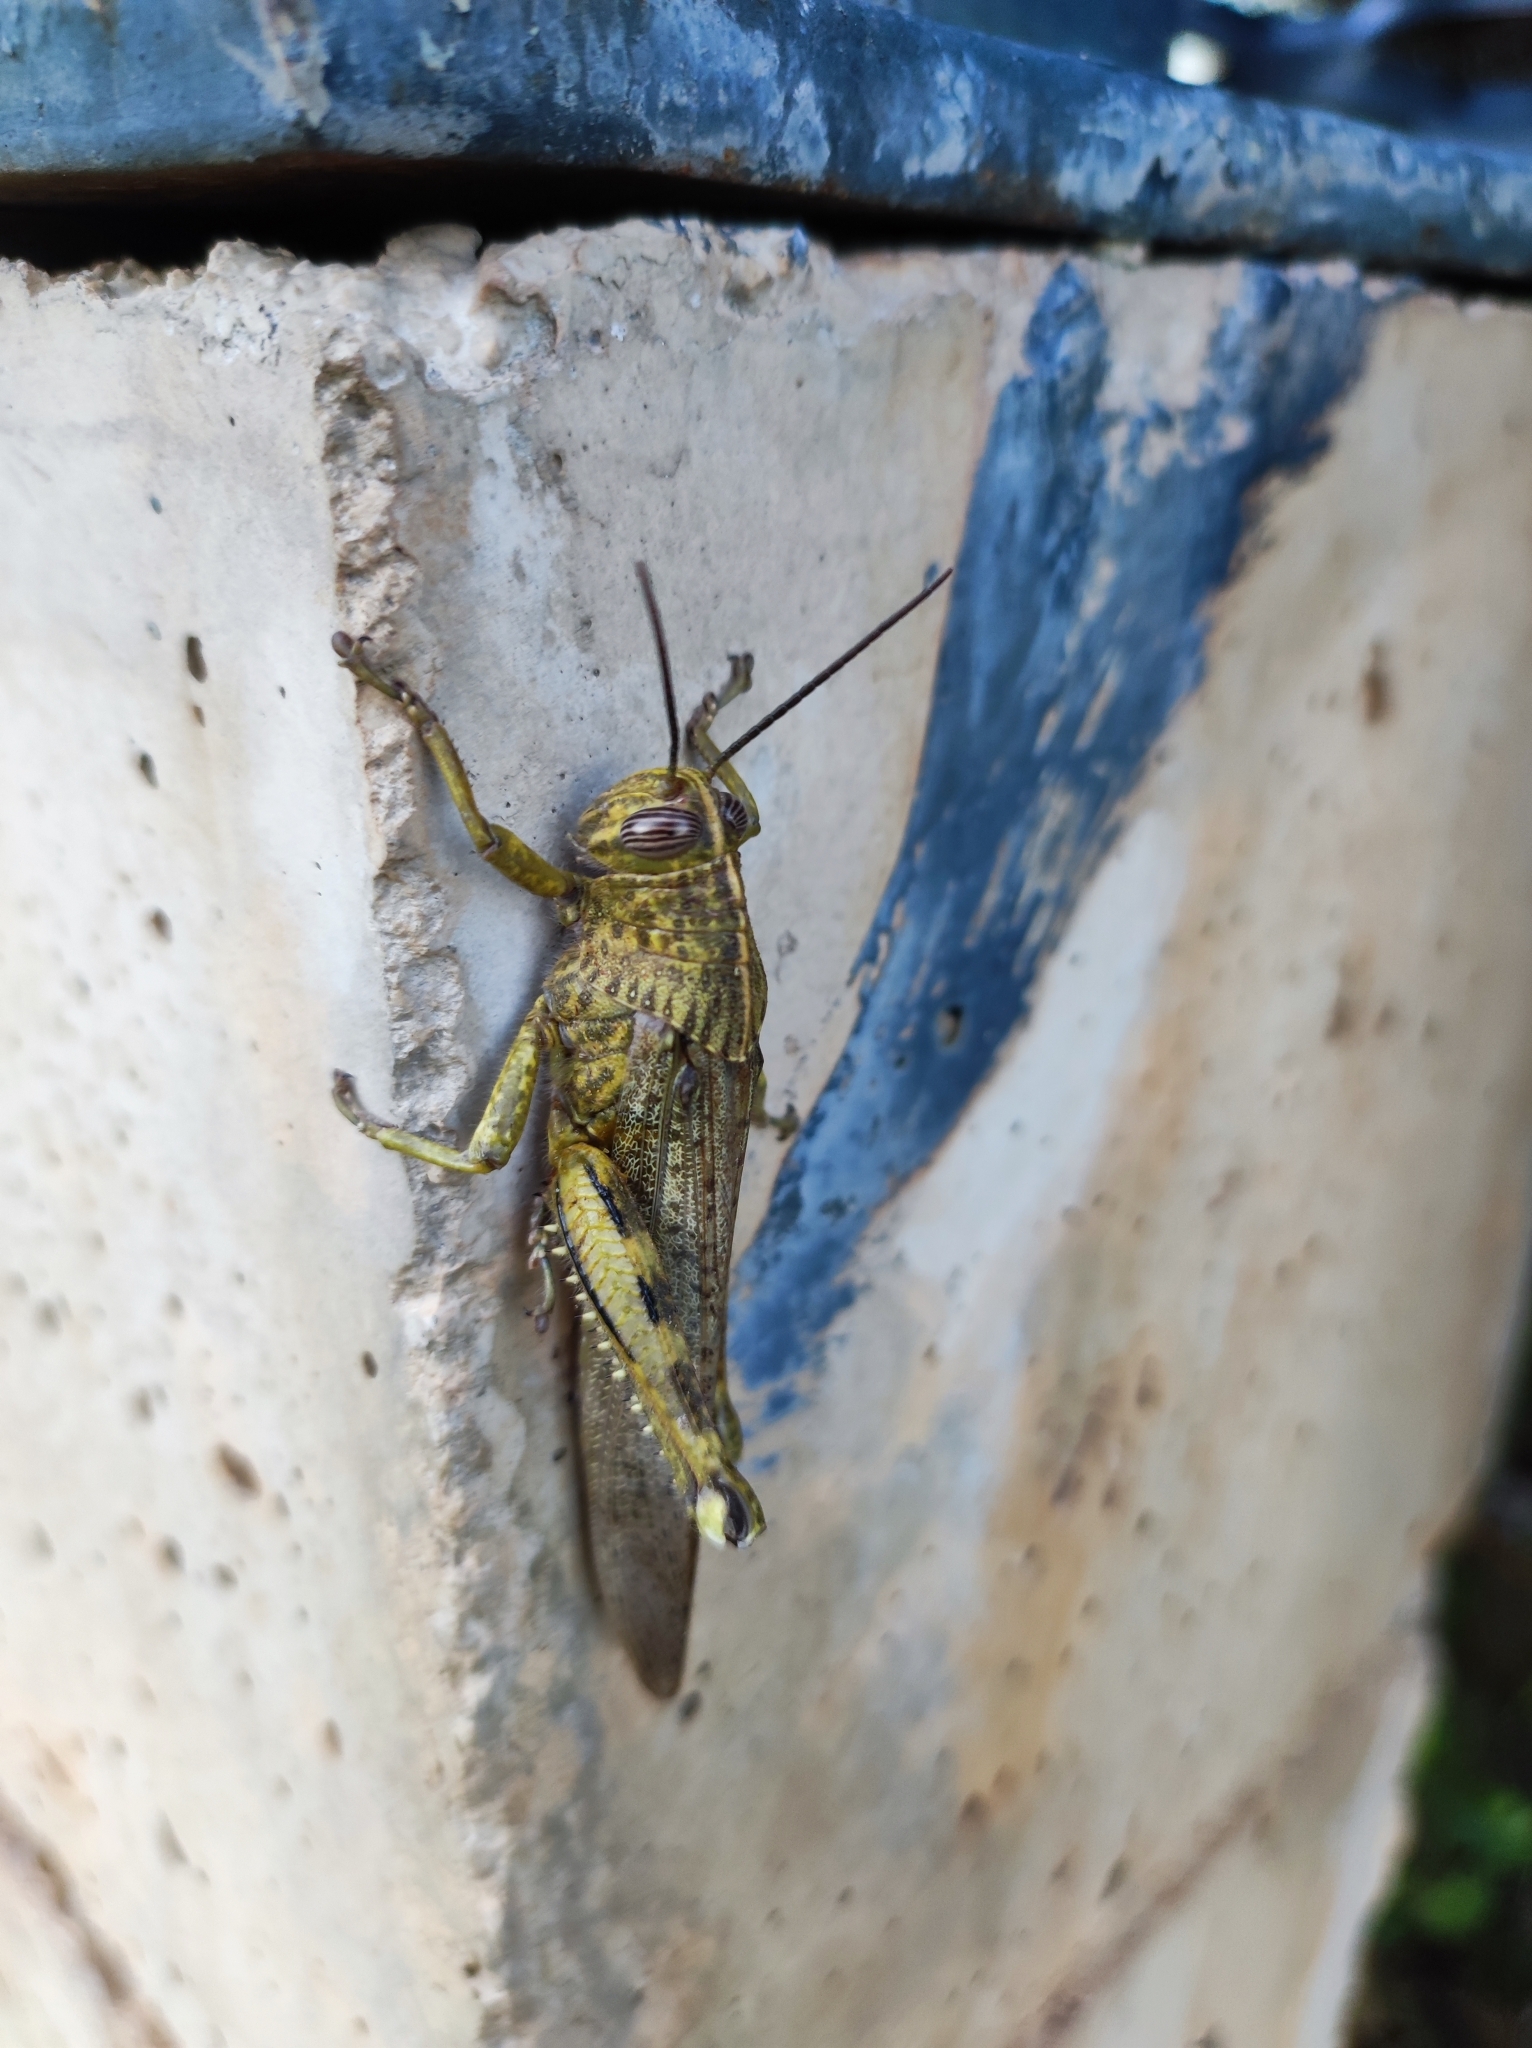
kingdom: Animalia
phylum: Arthropoda
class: Insecta
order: Orthoptera
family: Acrididae
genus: Anacridium
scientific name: Anacridium aegyptium
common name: Egyptian grasshopper
